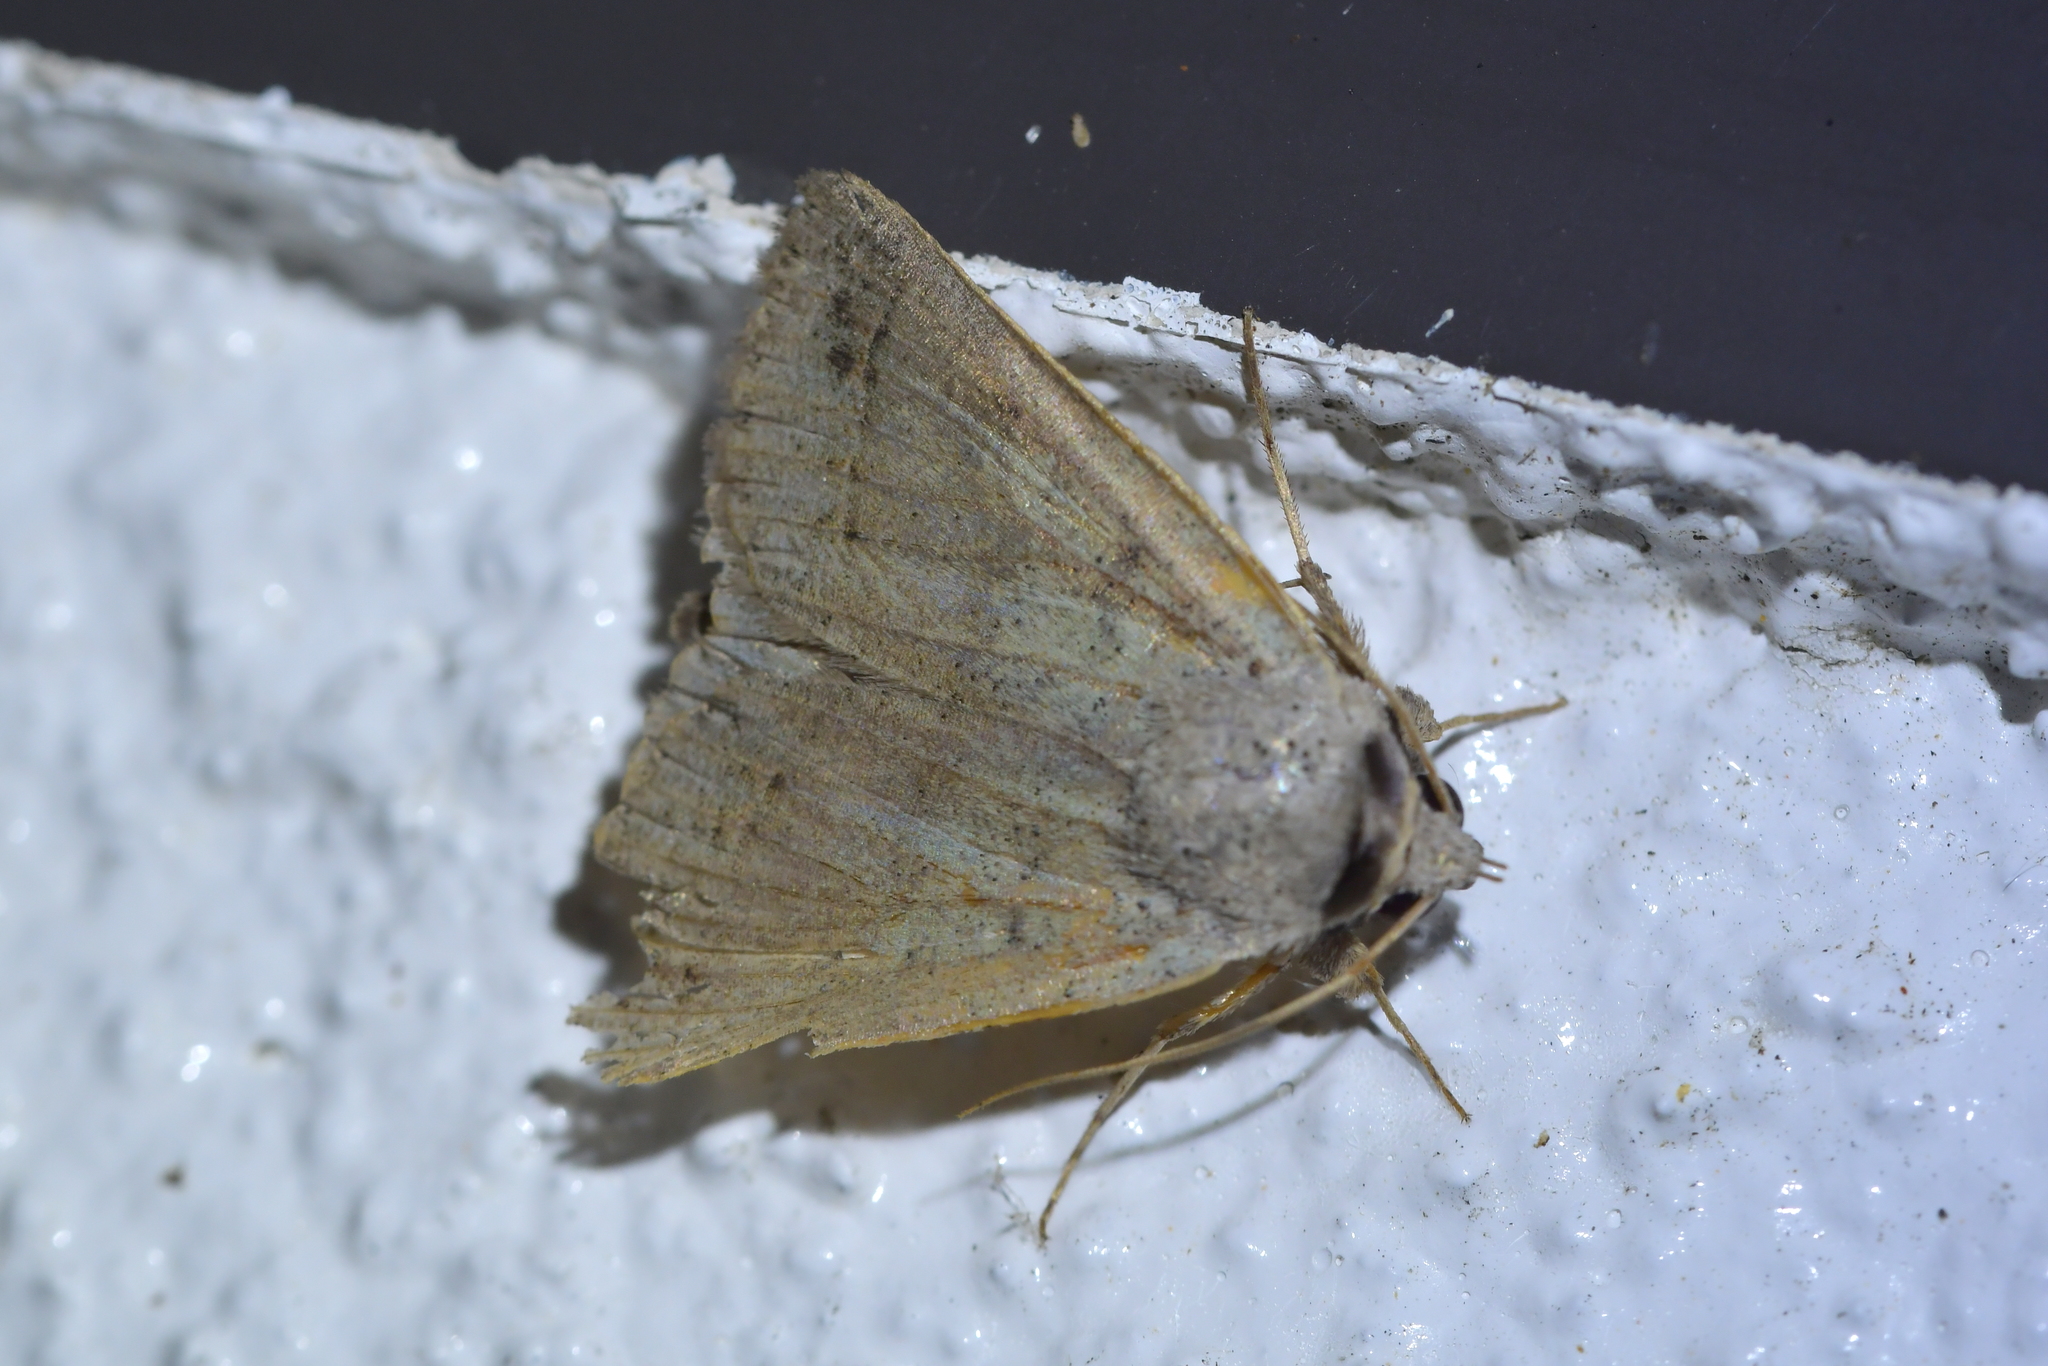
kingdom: Animalia
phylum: Arthropoda
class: Insecta
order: Lepidoptera
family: Erebidae
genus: Pantydia
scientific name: Pantydia sparsa
